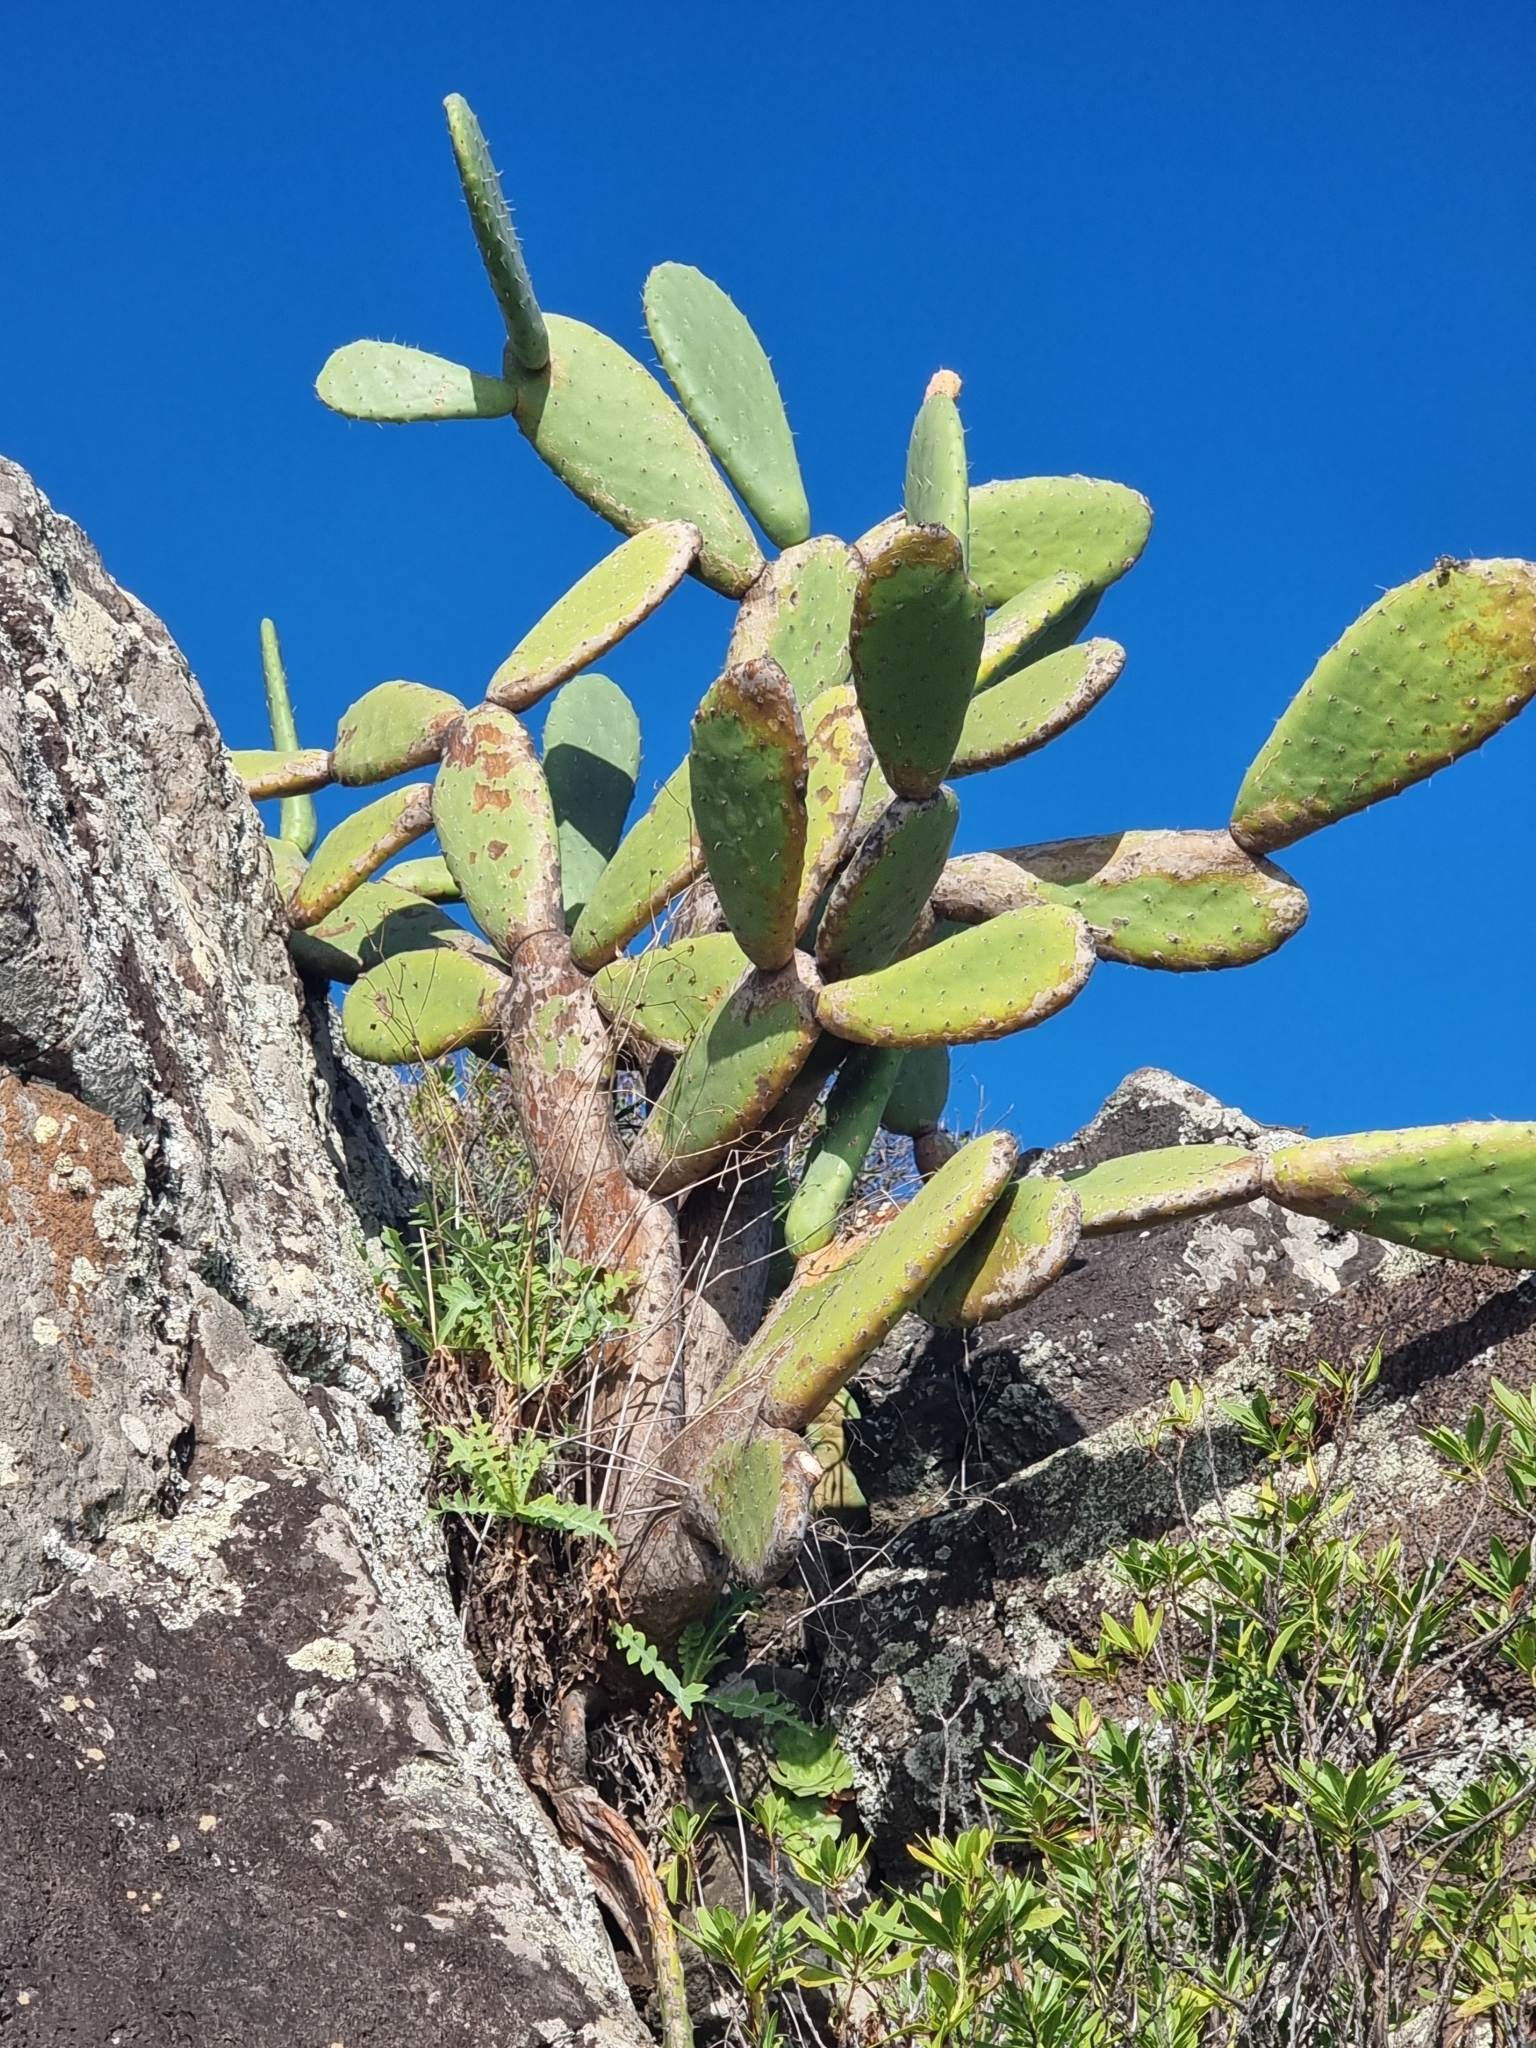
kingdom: Plantae
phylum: Tracheophyta
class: Magnoliopsida
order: Caryophyllales
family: Cactaceae
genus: Opuntia
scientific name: Opuntia ficus-indica
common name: Barbary fig
